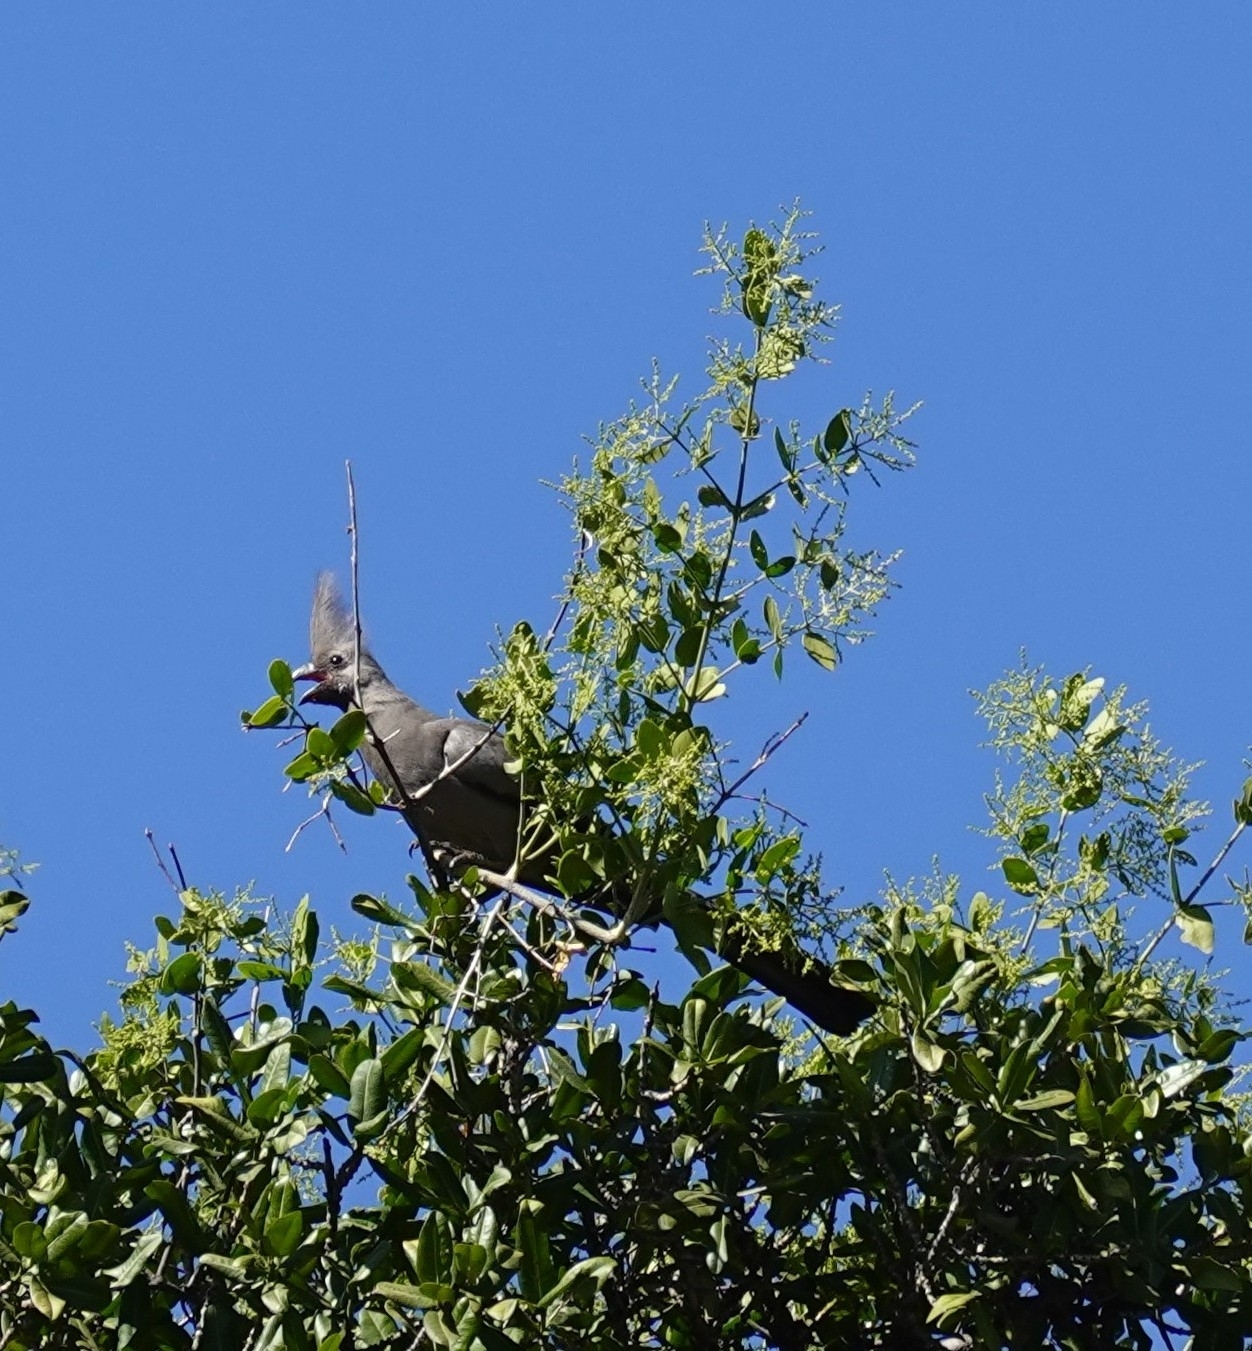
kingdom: Animalia
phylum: Chordata
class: Aves
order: Musophagiformes
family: Musophagidae
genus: Corythaixoides
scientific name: Corythaixoides concolor
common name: Grey go-away-bird
